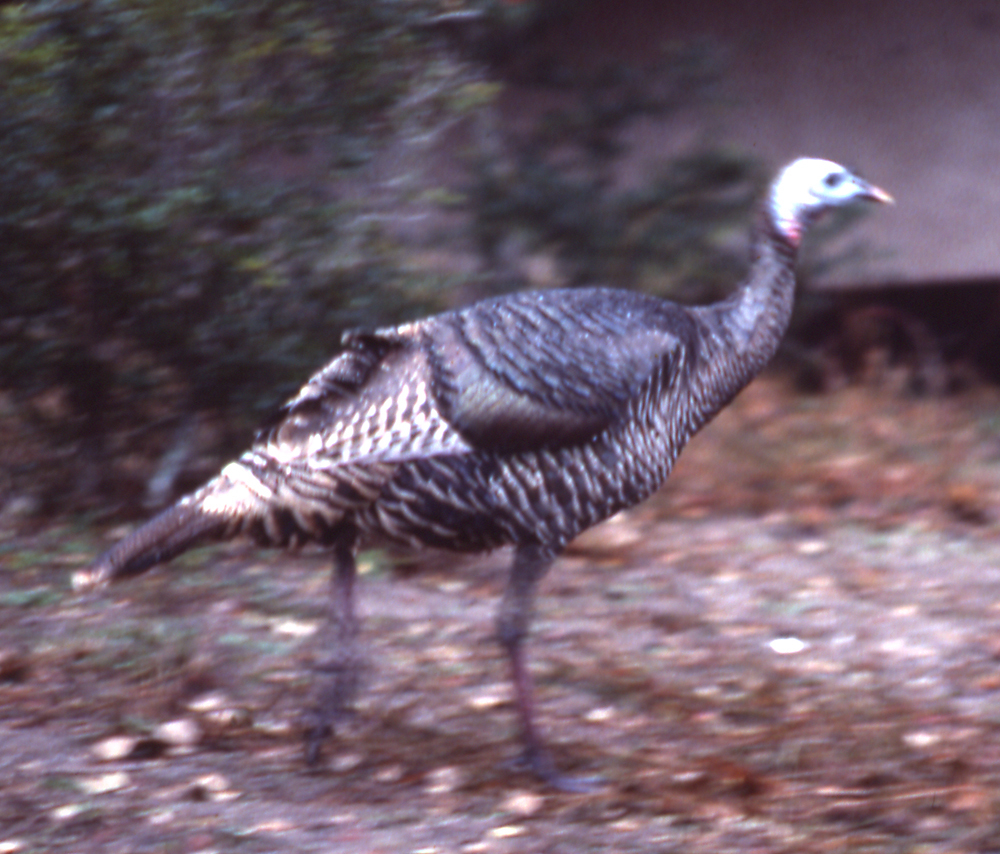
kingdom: Animalia
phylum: Chordata
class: Aves
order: Galliformes
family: Phasianidae
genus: Meleagris
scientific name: Meleagris gallopavo
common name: Wild turkey
